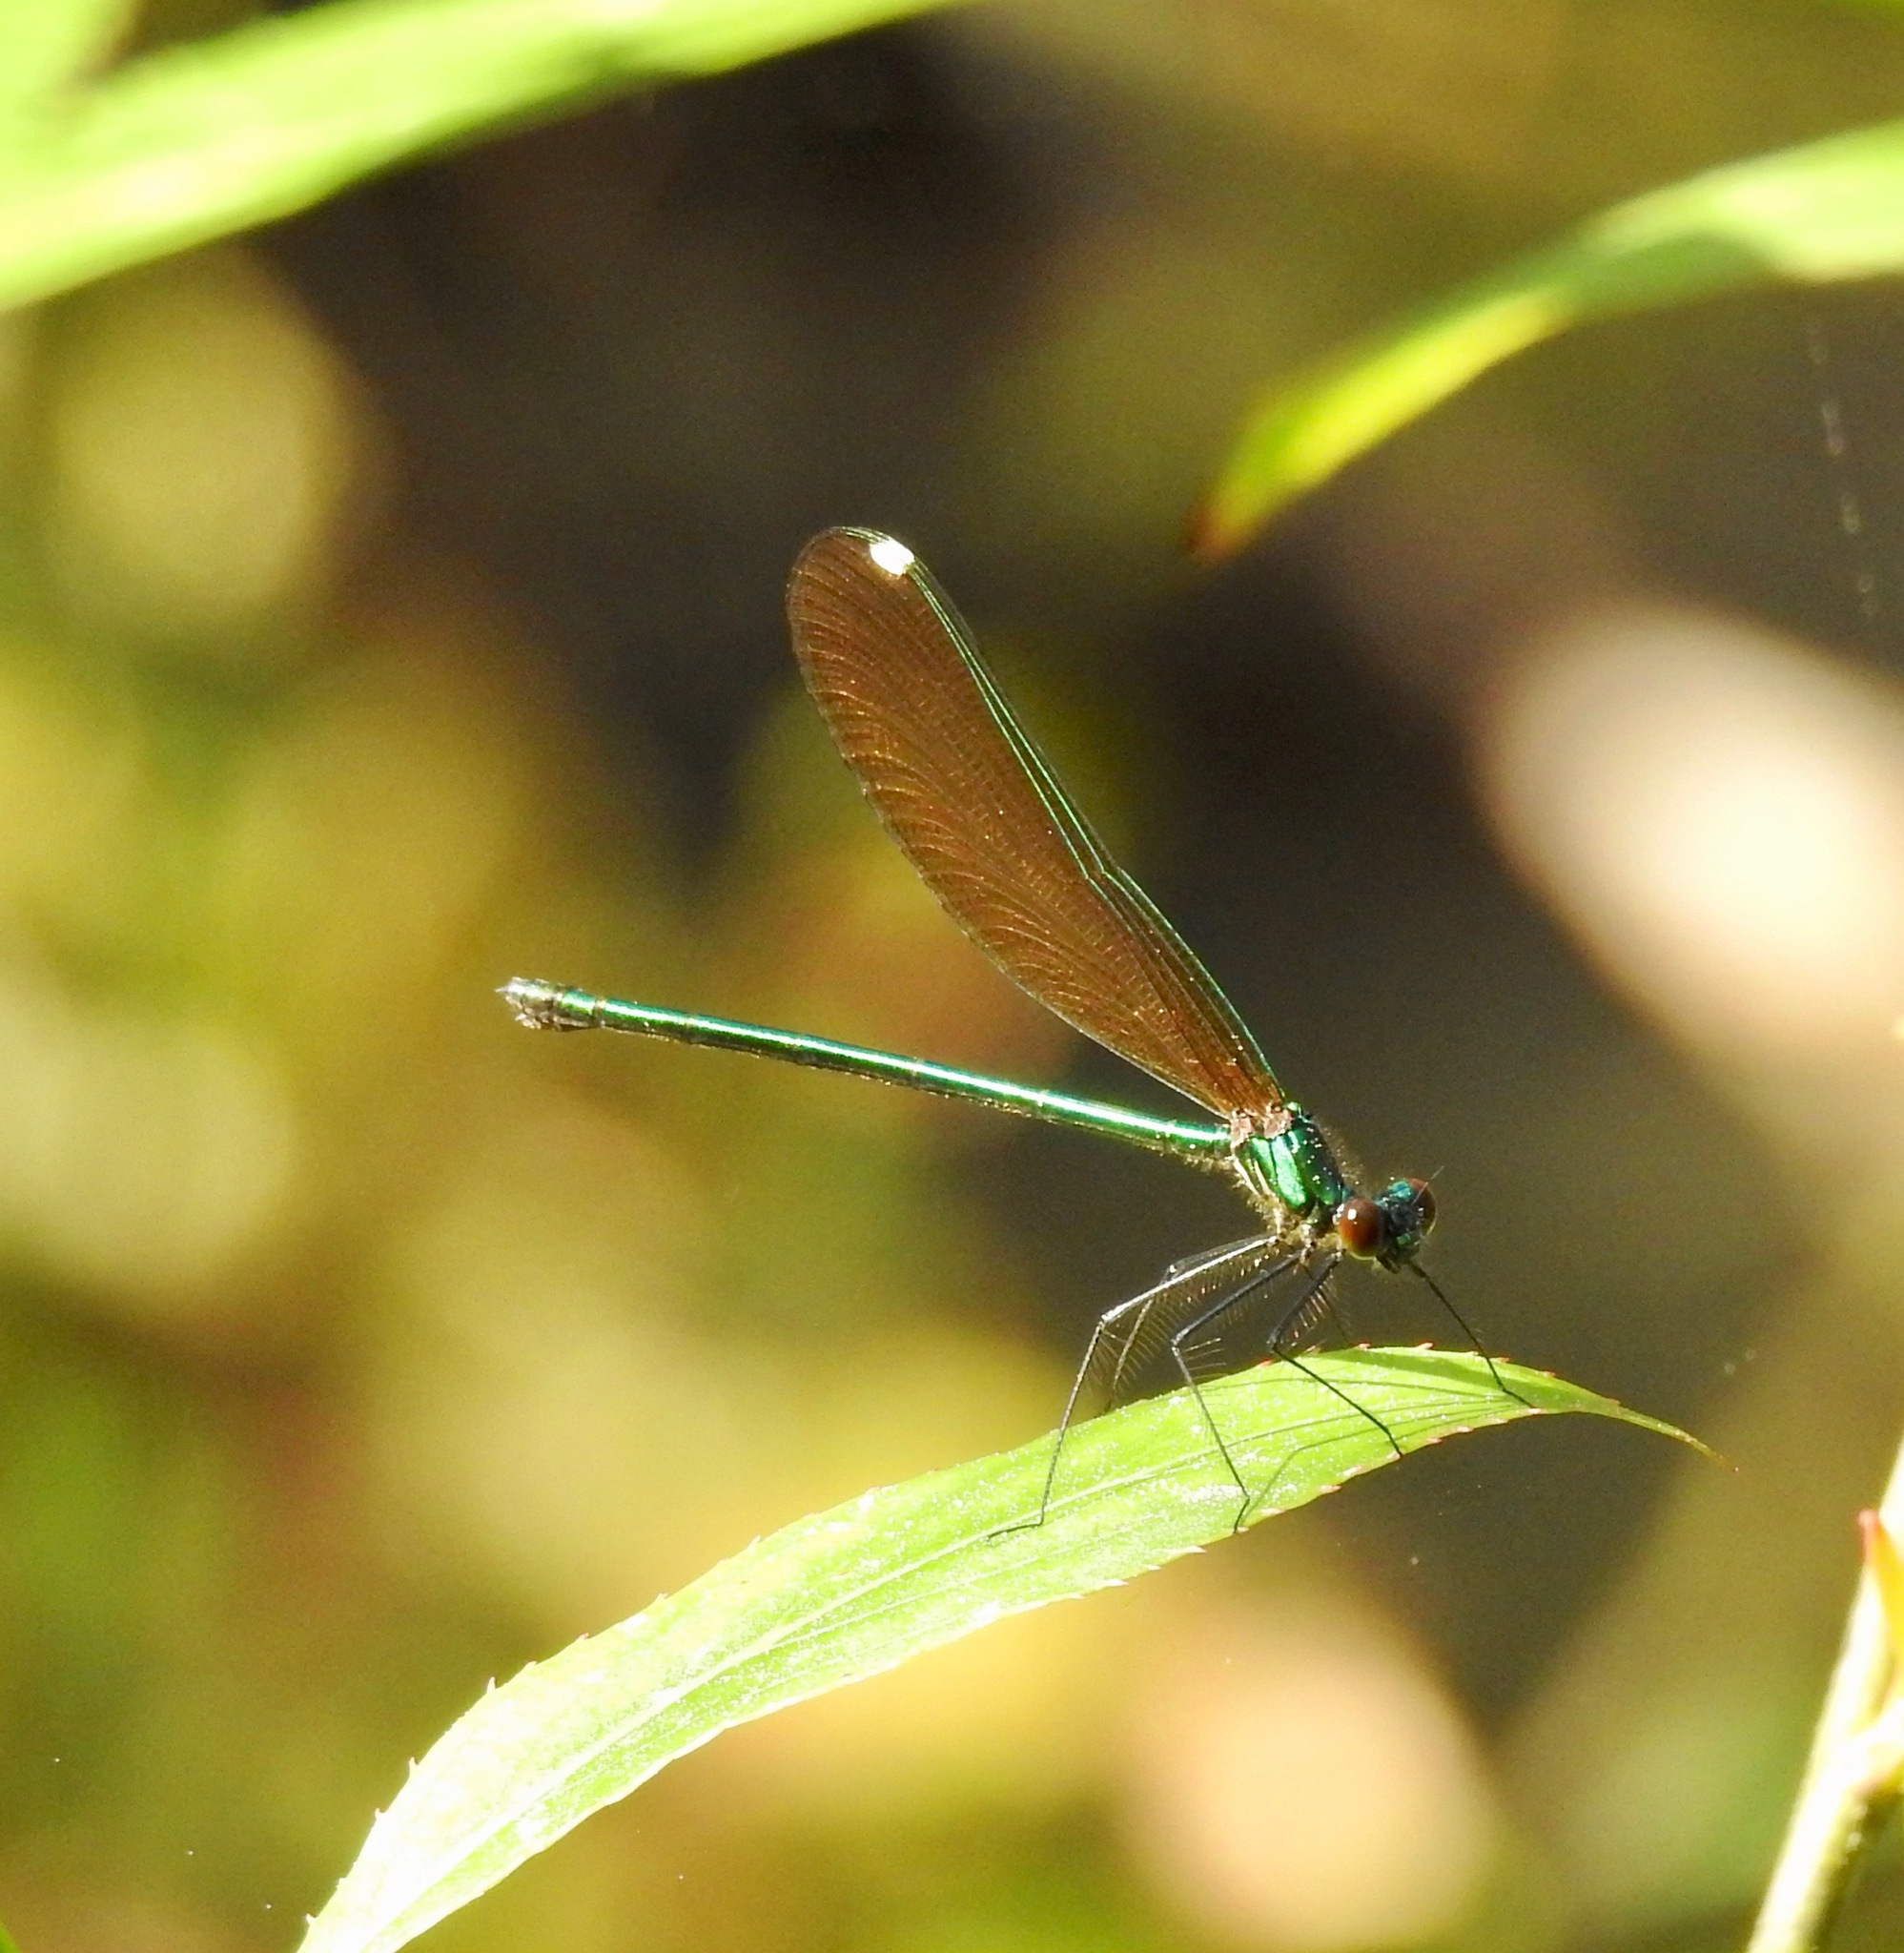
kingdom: Animalia
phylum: Arthropoda
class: Insecta
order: Odonata
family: Calopterygidae
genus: Calopteryx
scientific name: Calopteryx dimidiata
